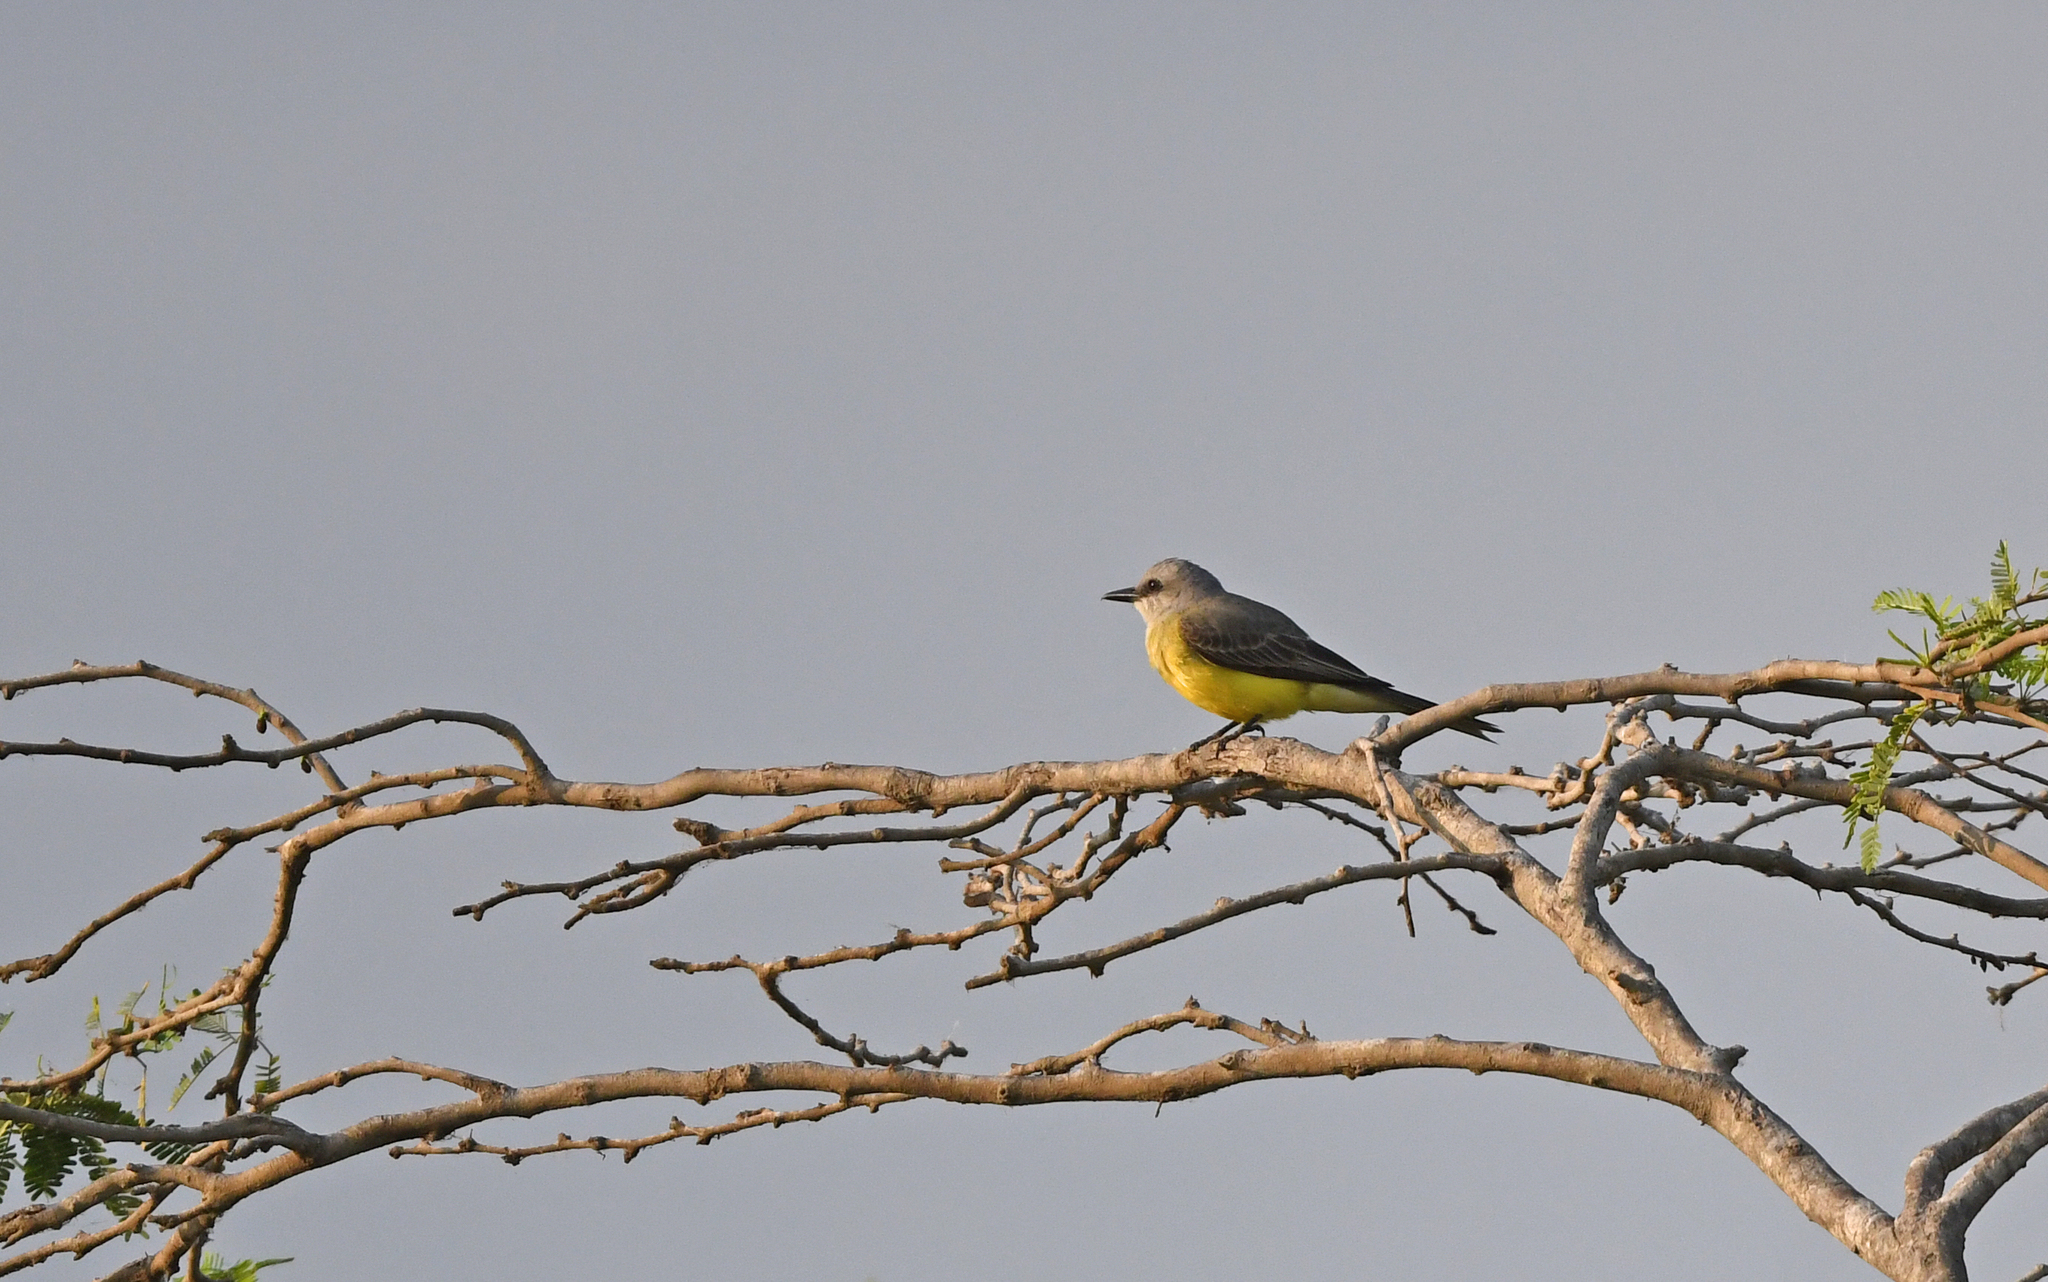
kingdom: Animalia
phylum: Chordata
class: Aves
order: Passeriformes
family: Tyrannidae
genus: Tyrannus
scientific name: Tyrannus melancholicus
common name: Tropical kingbird
